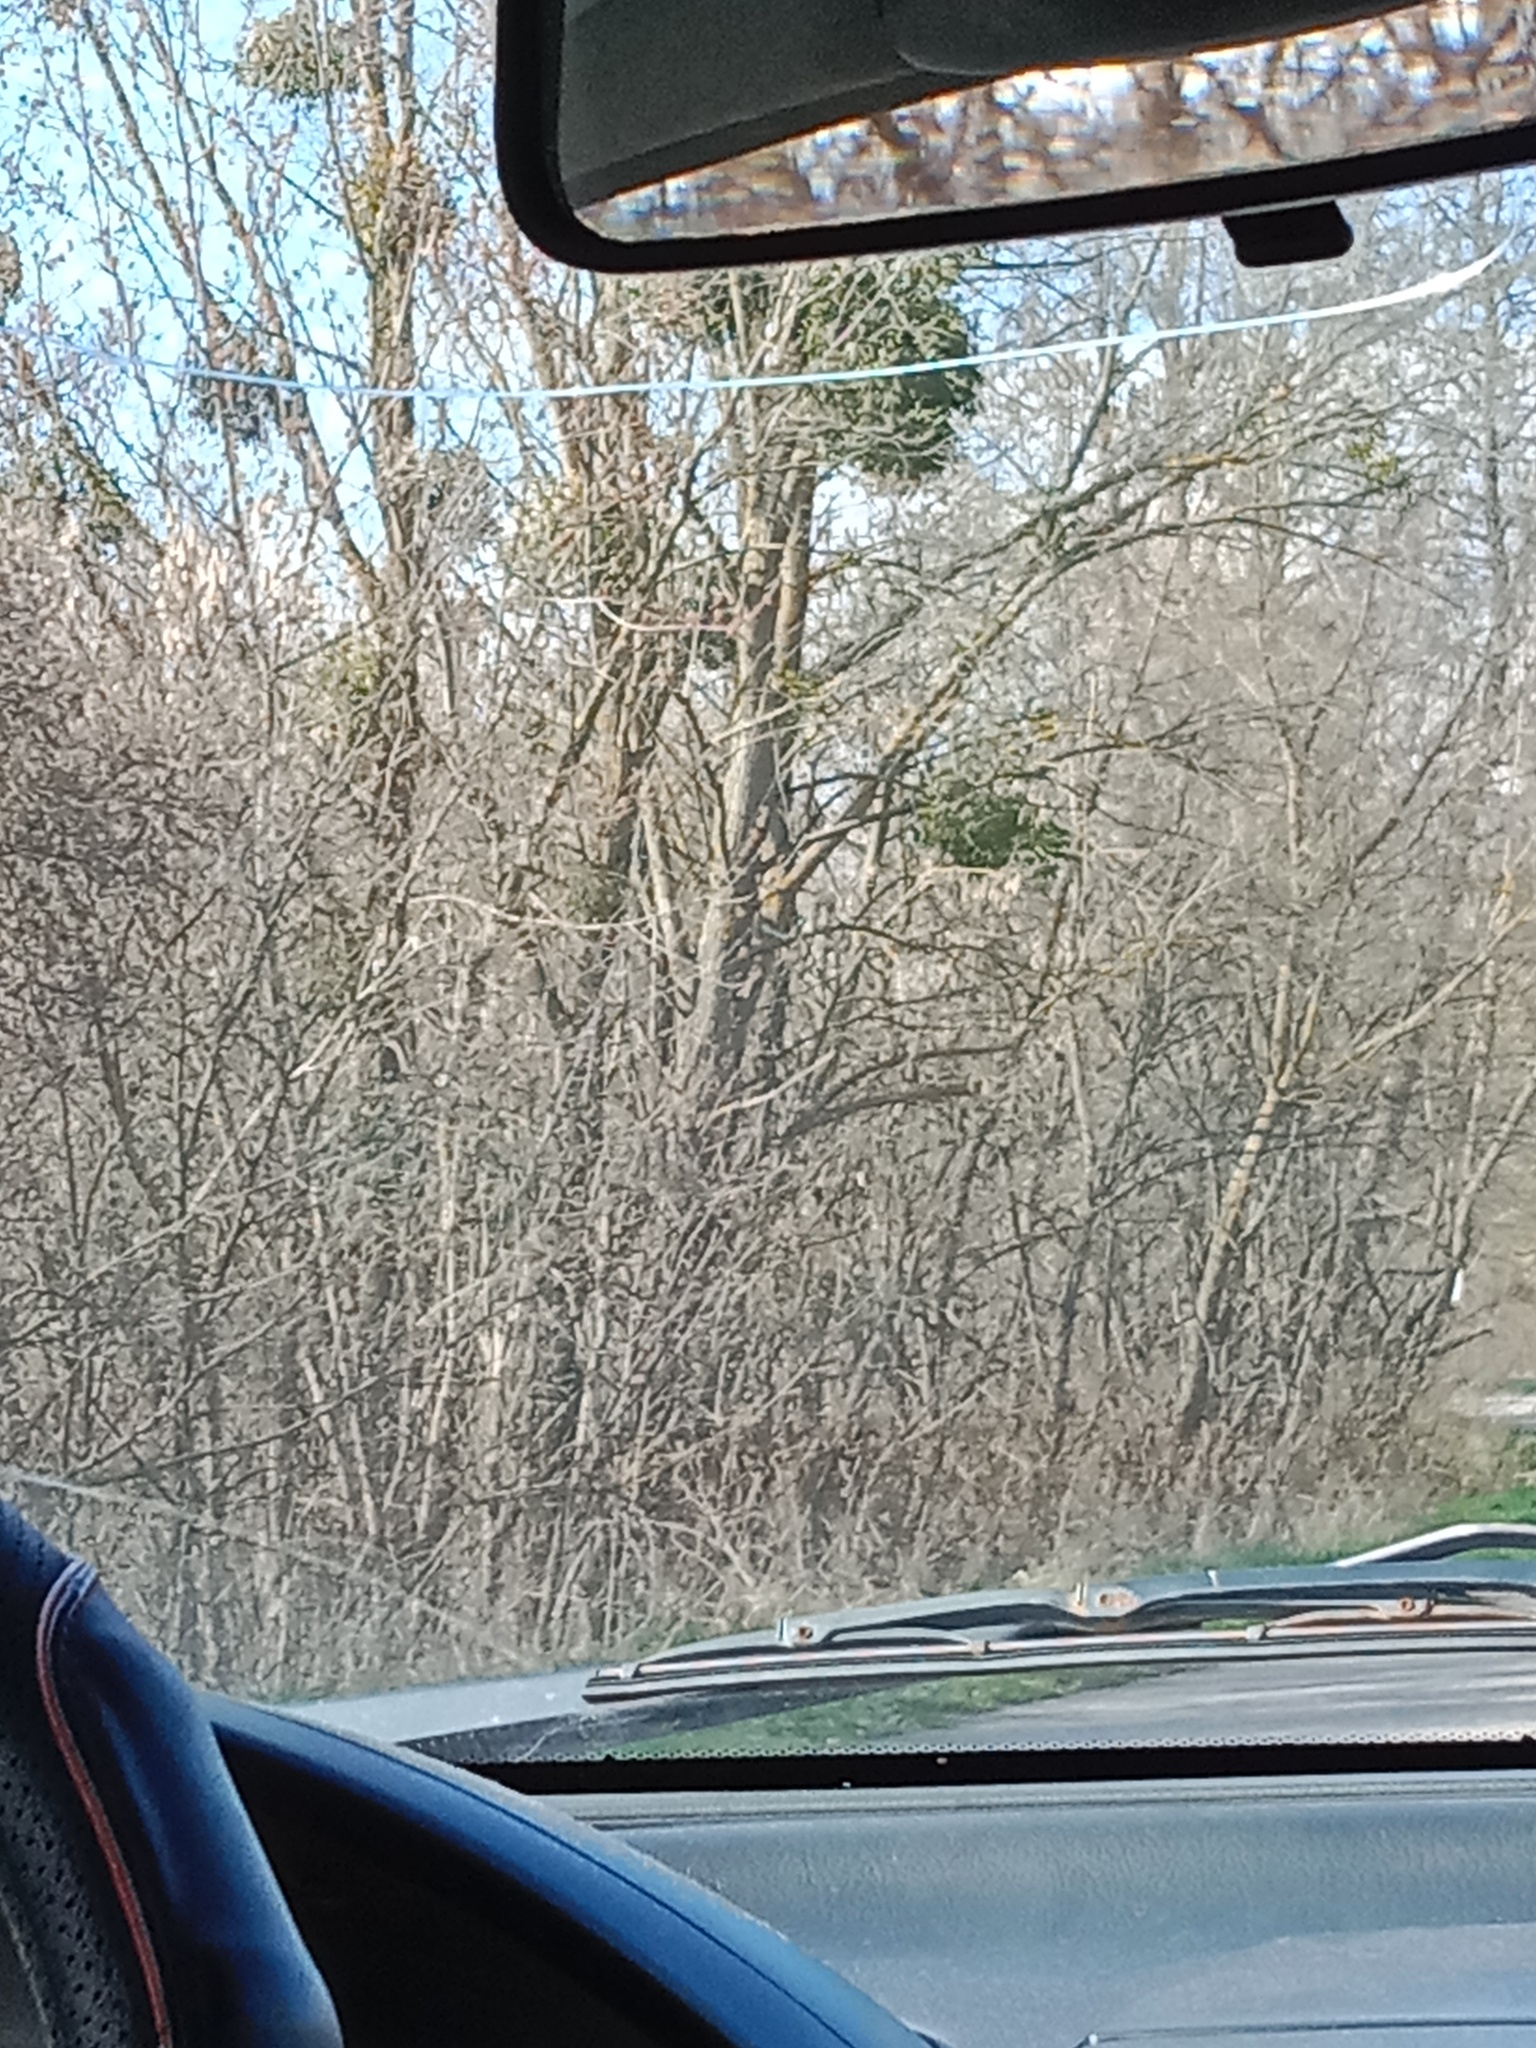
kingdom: Plantae
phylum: Tracheophyta
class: Magnoliopsida
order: Santalales
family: Viscaceae
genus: Viscum
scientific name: Viscum album
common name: Mistletoe
